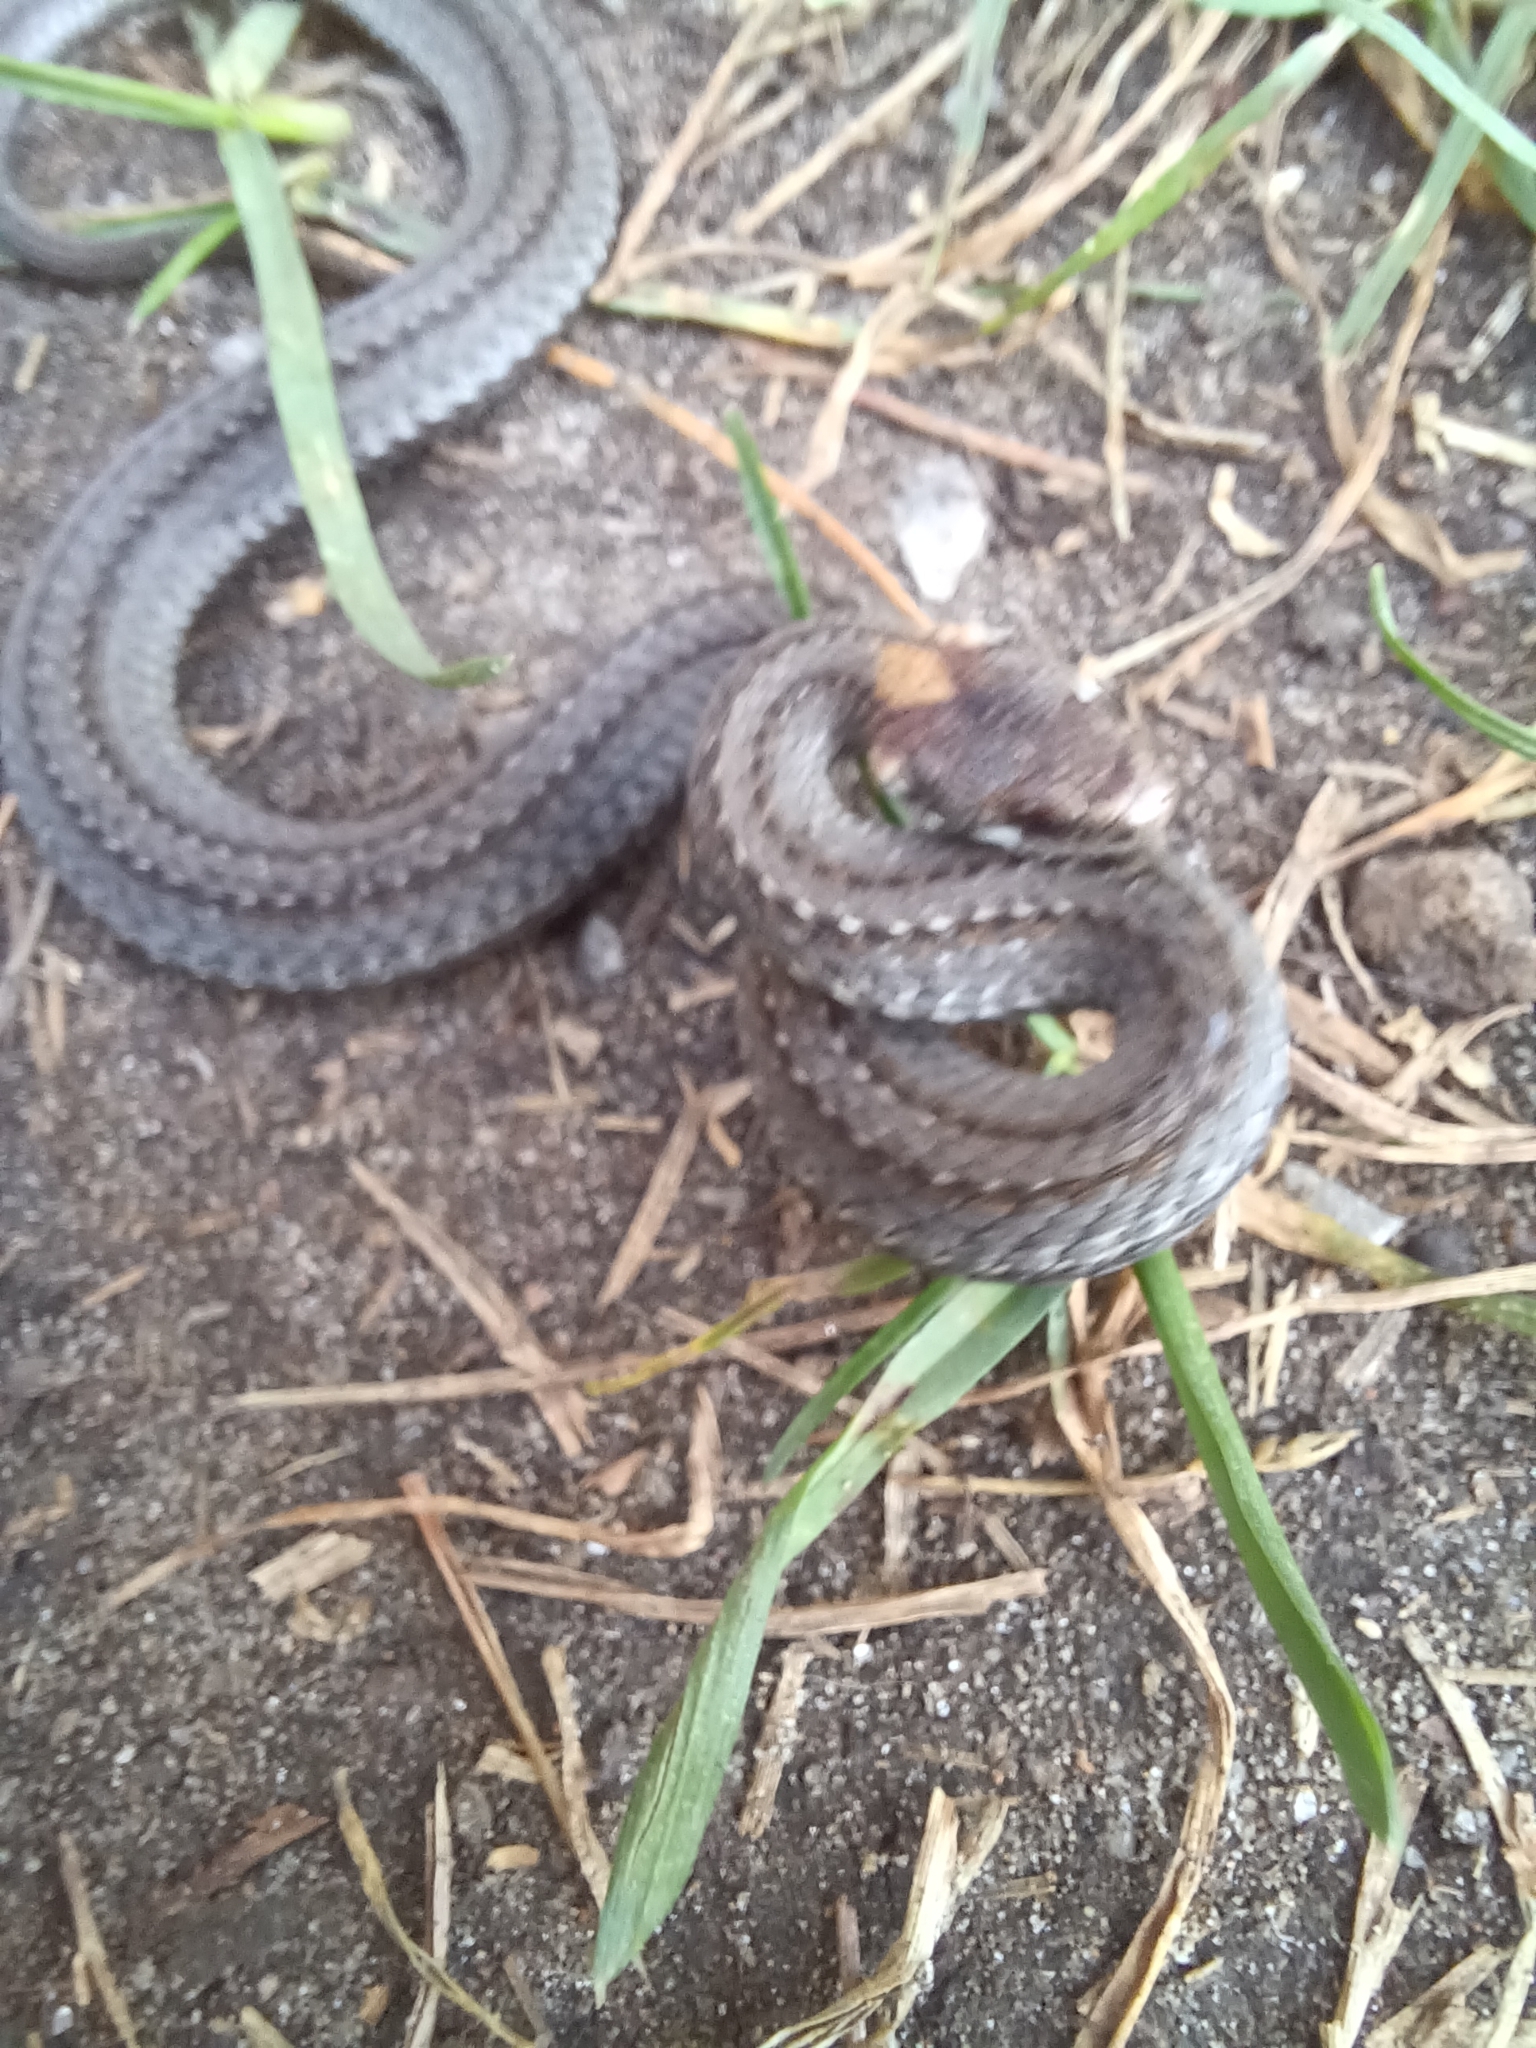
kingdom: Animalia
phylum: Chordata
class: Squamata
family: Colubridae
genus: Storeria
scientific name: Storeria occipitomaculata
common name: Redbelly snake
